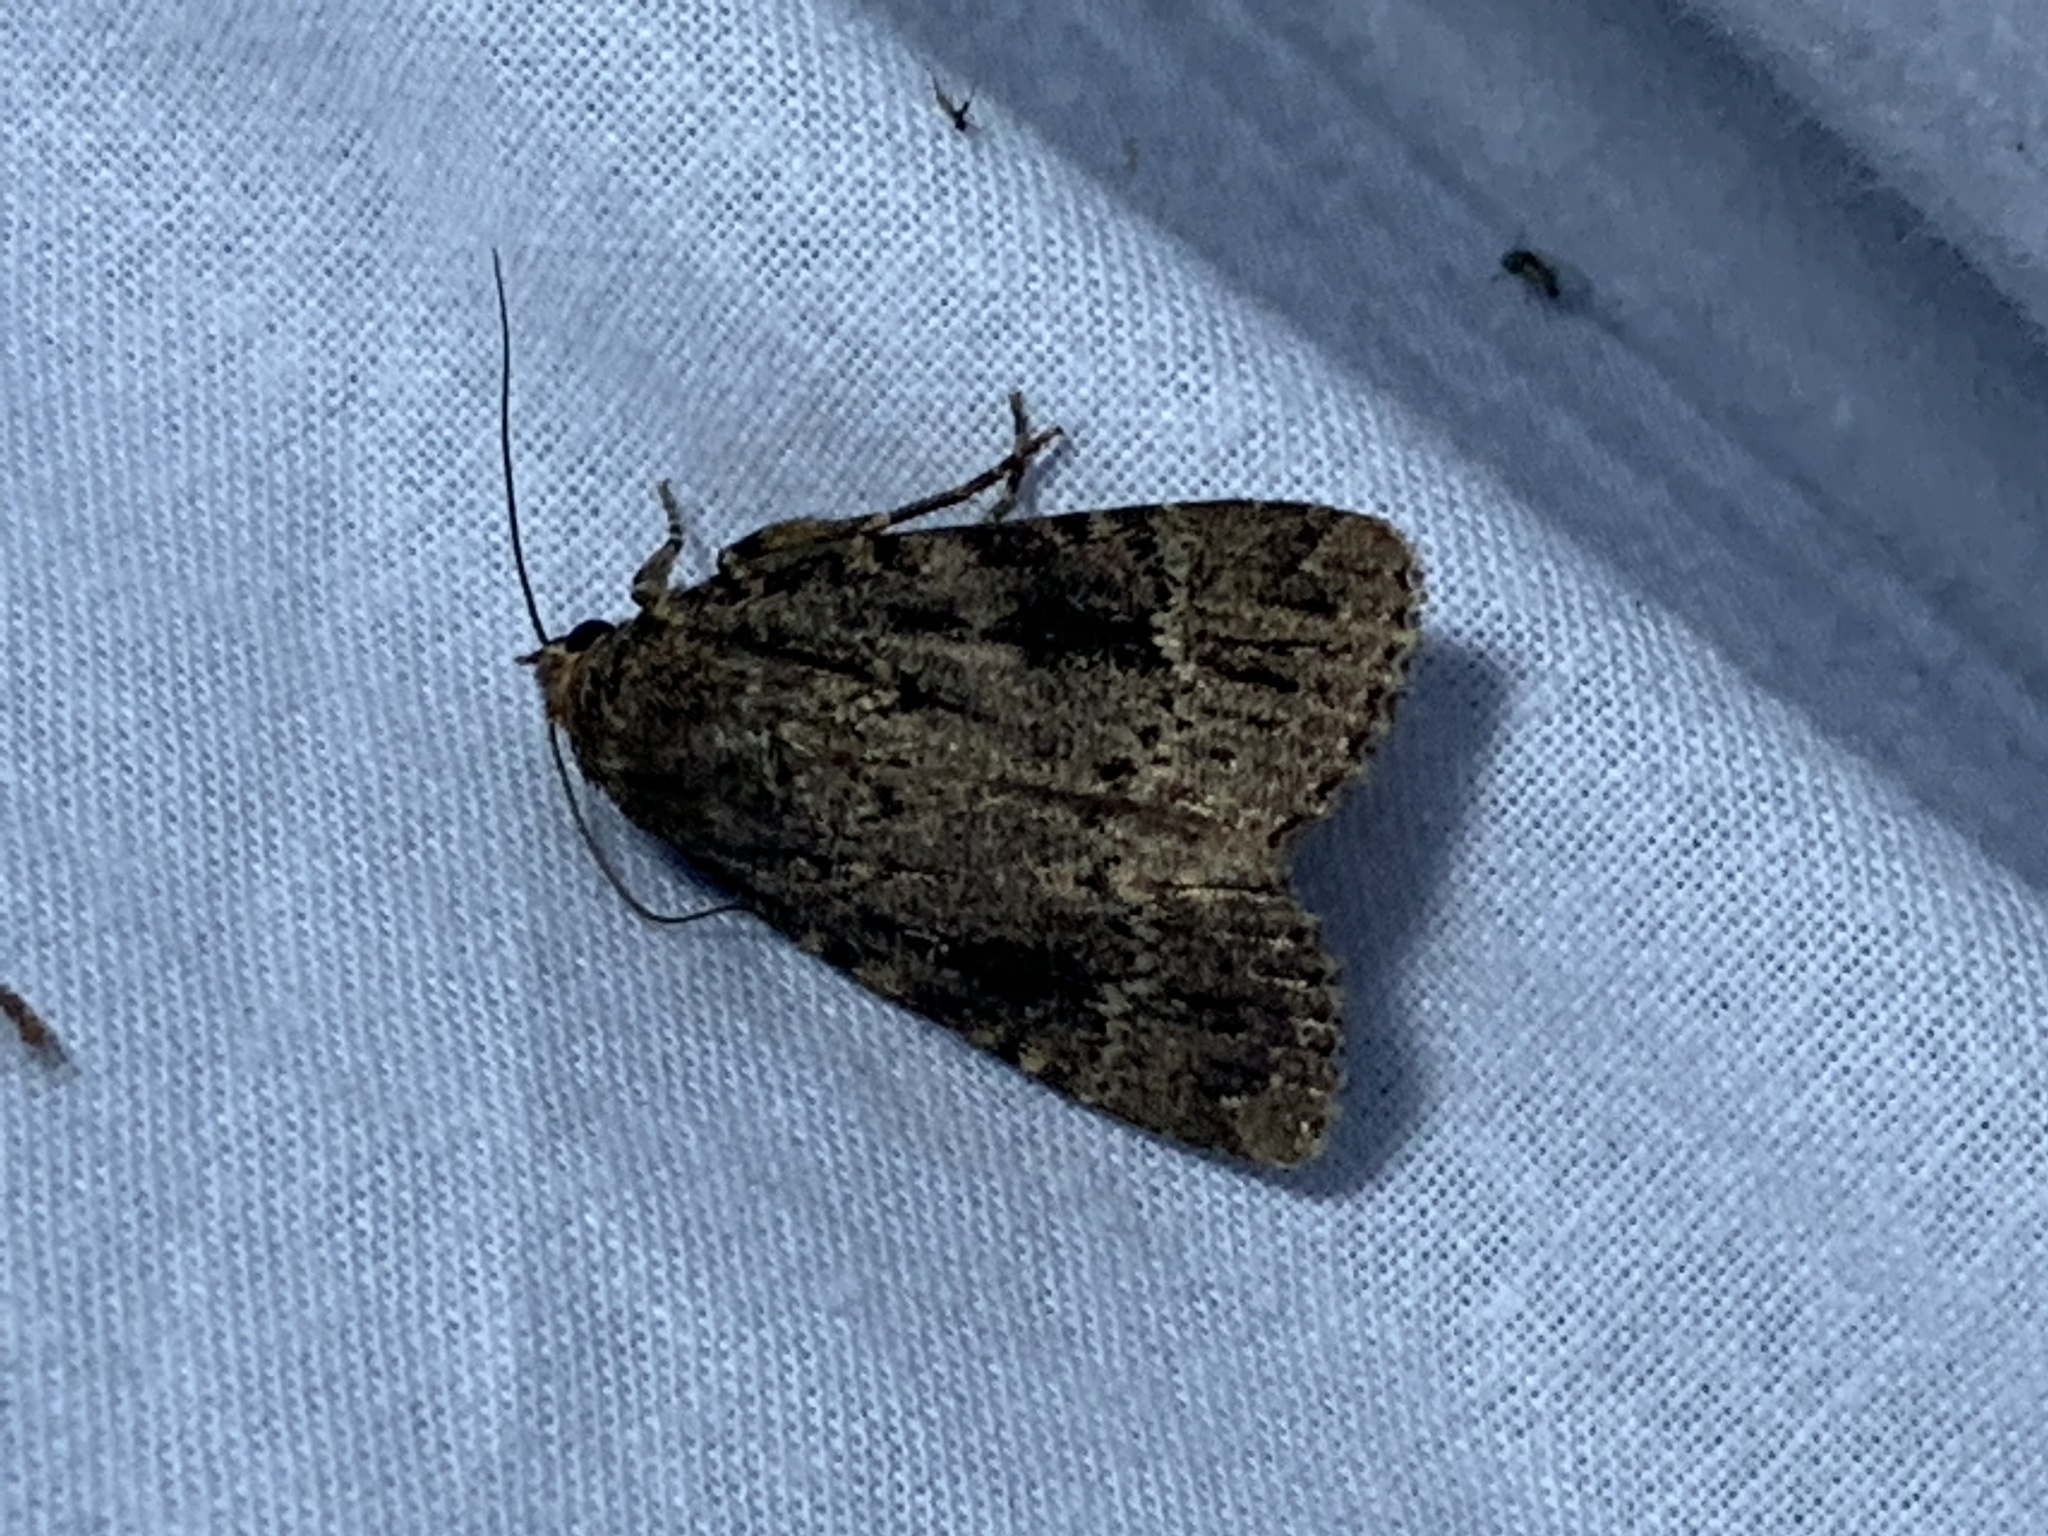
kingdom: Animalia
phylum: Arthropoda
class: Insecta
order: Lepidoptera
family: Noctuidae
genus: Amphipyra
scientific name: Amphipyra pyramidea
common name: Copper underwing
